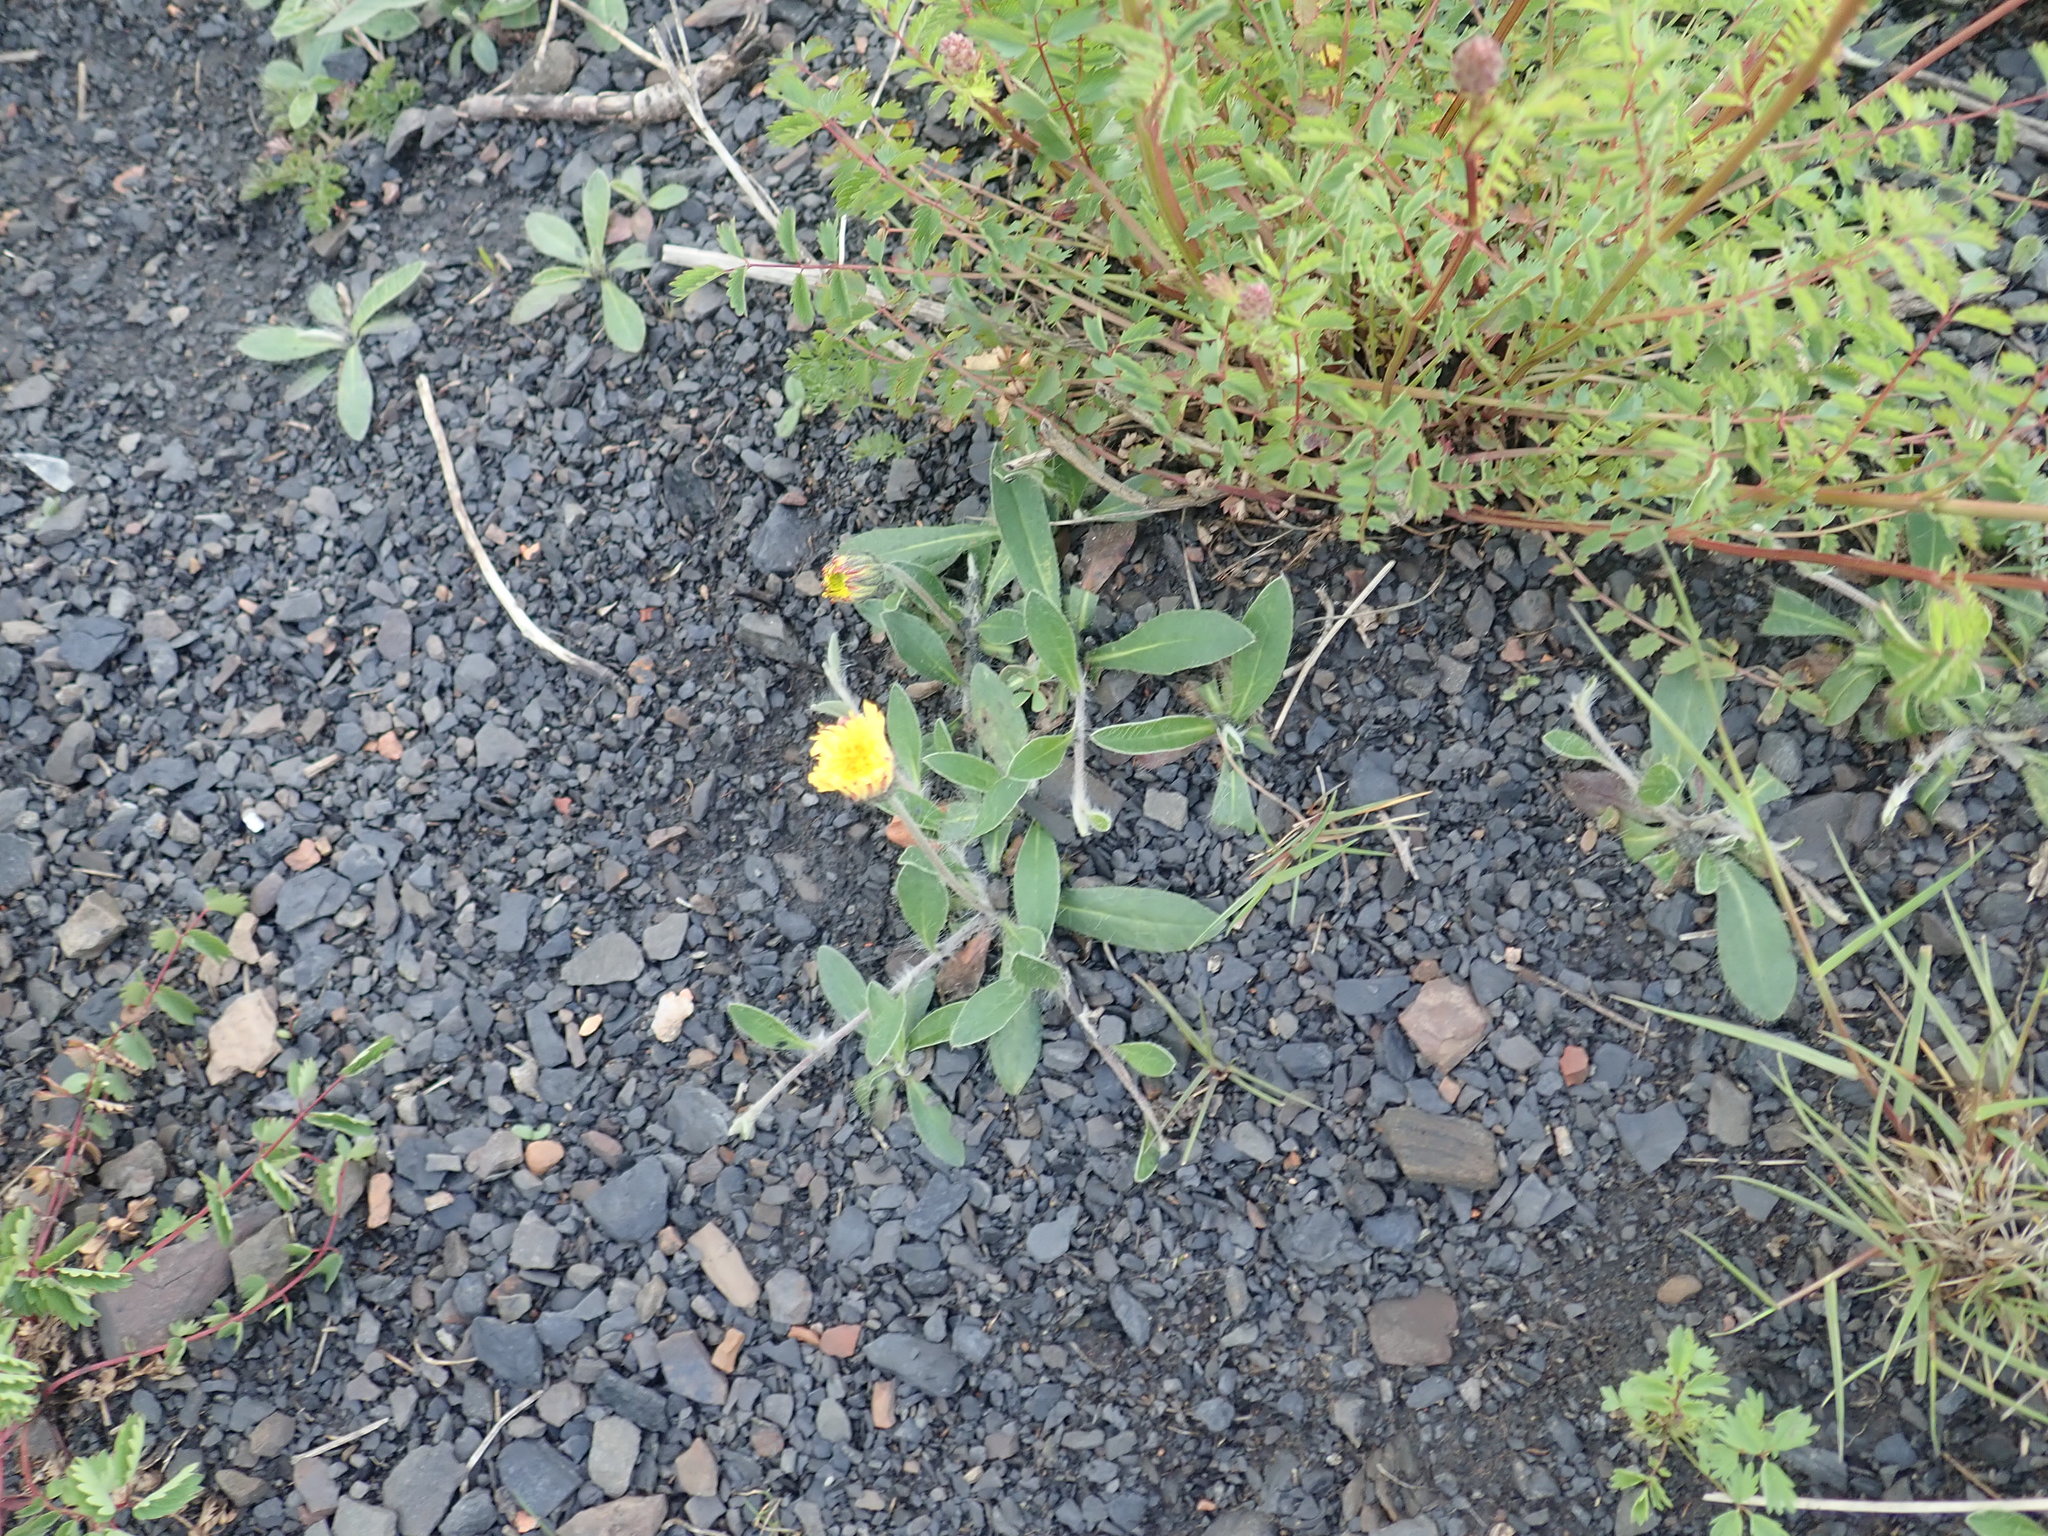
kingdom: Plantae
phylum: Tracheophyta
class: Magnoliopsida
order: Asterales
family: Asteraceae
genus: Pilosella
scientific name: Pilosella officinarum
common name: Mouse-ear hawkweed
